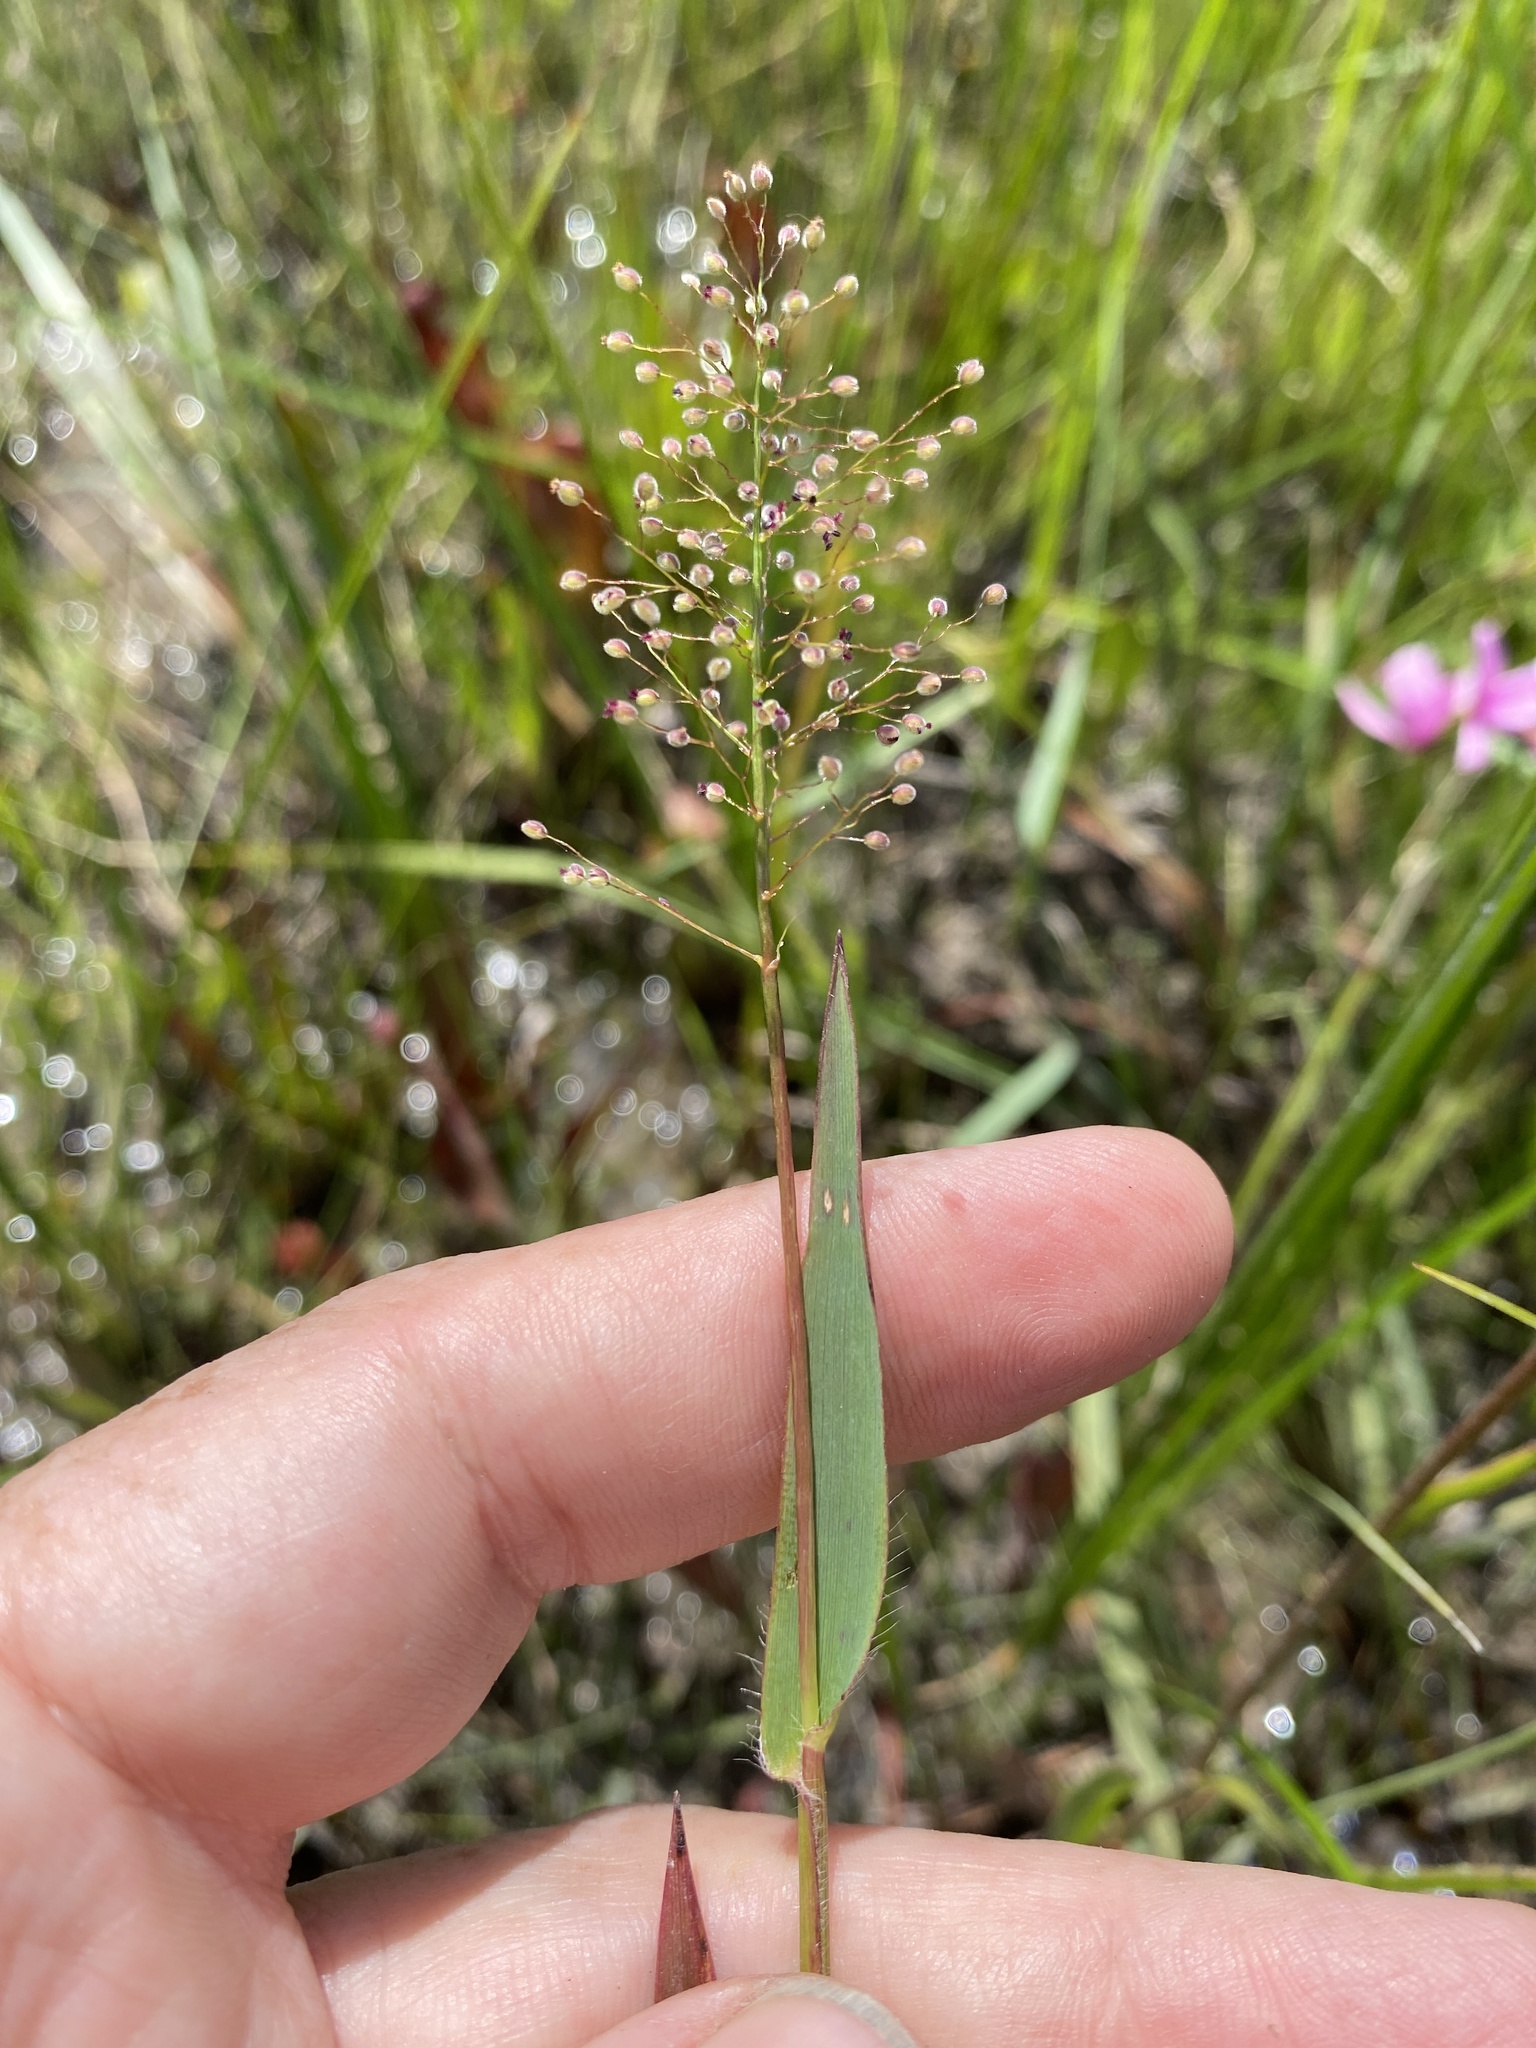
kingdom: Plantae
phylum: Tracheophyta
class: Liliopsida
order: Poales
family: Poaceae
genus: Dichanthelium
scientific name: Dichanthelium erectifolium
